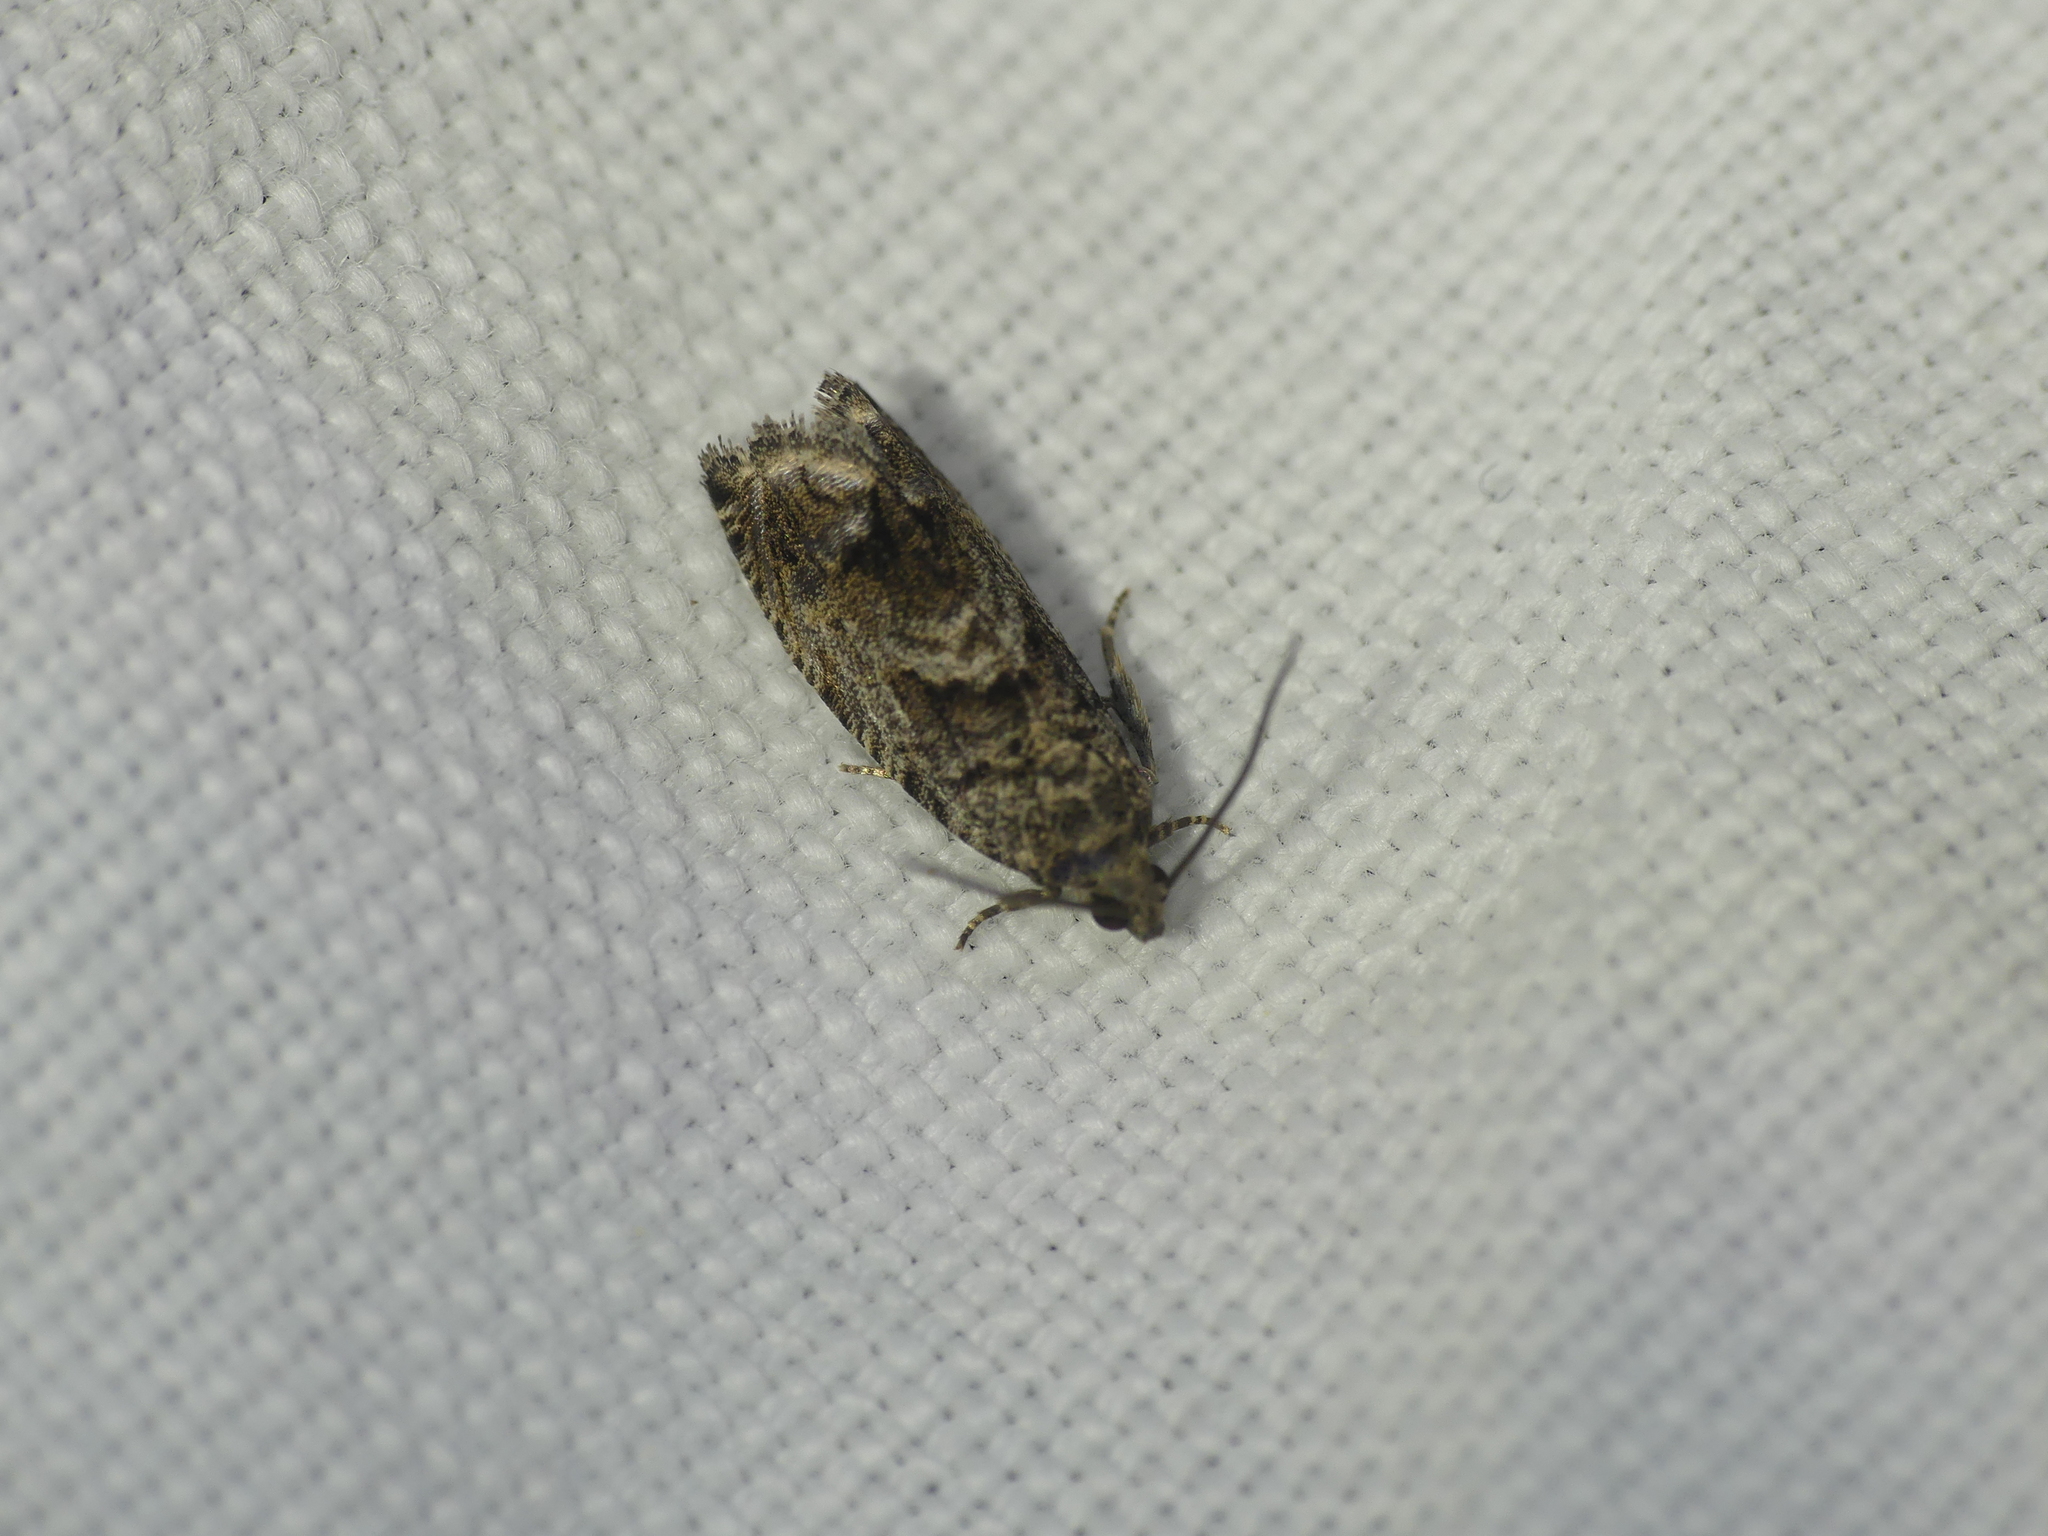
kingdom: Animalia
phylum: Arthropoda
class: Insecta
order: Lepidoptera
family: Tortricidae
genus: Cydia
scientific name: Cydia fagiglandana
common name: Large beech piercer
